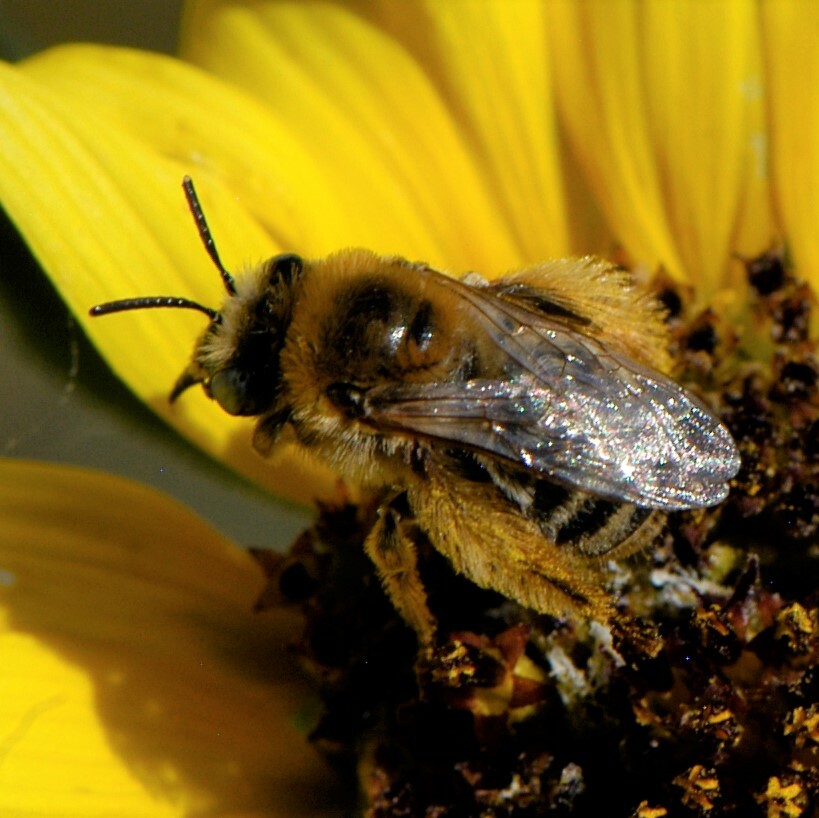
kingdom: Animalia
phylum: Arthropoda
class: Insecta
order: Hymenoptera
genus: Eumelissodes
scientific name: Eumelissodes
